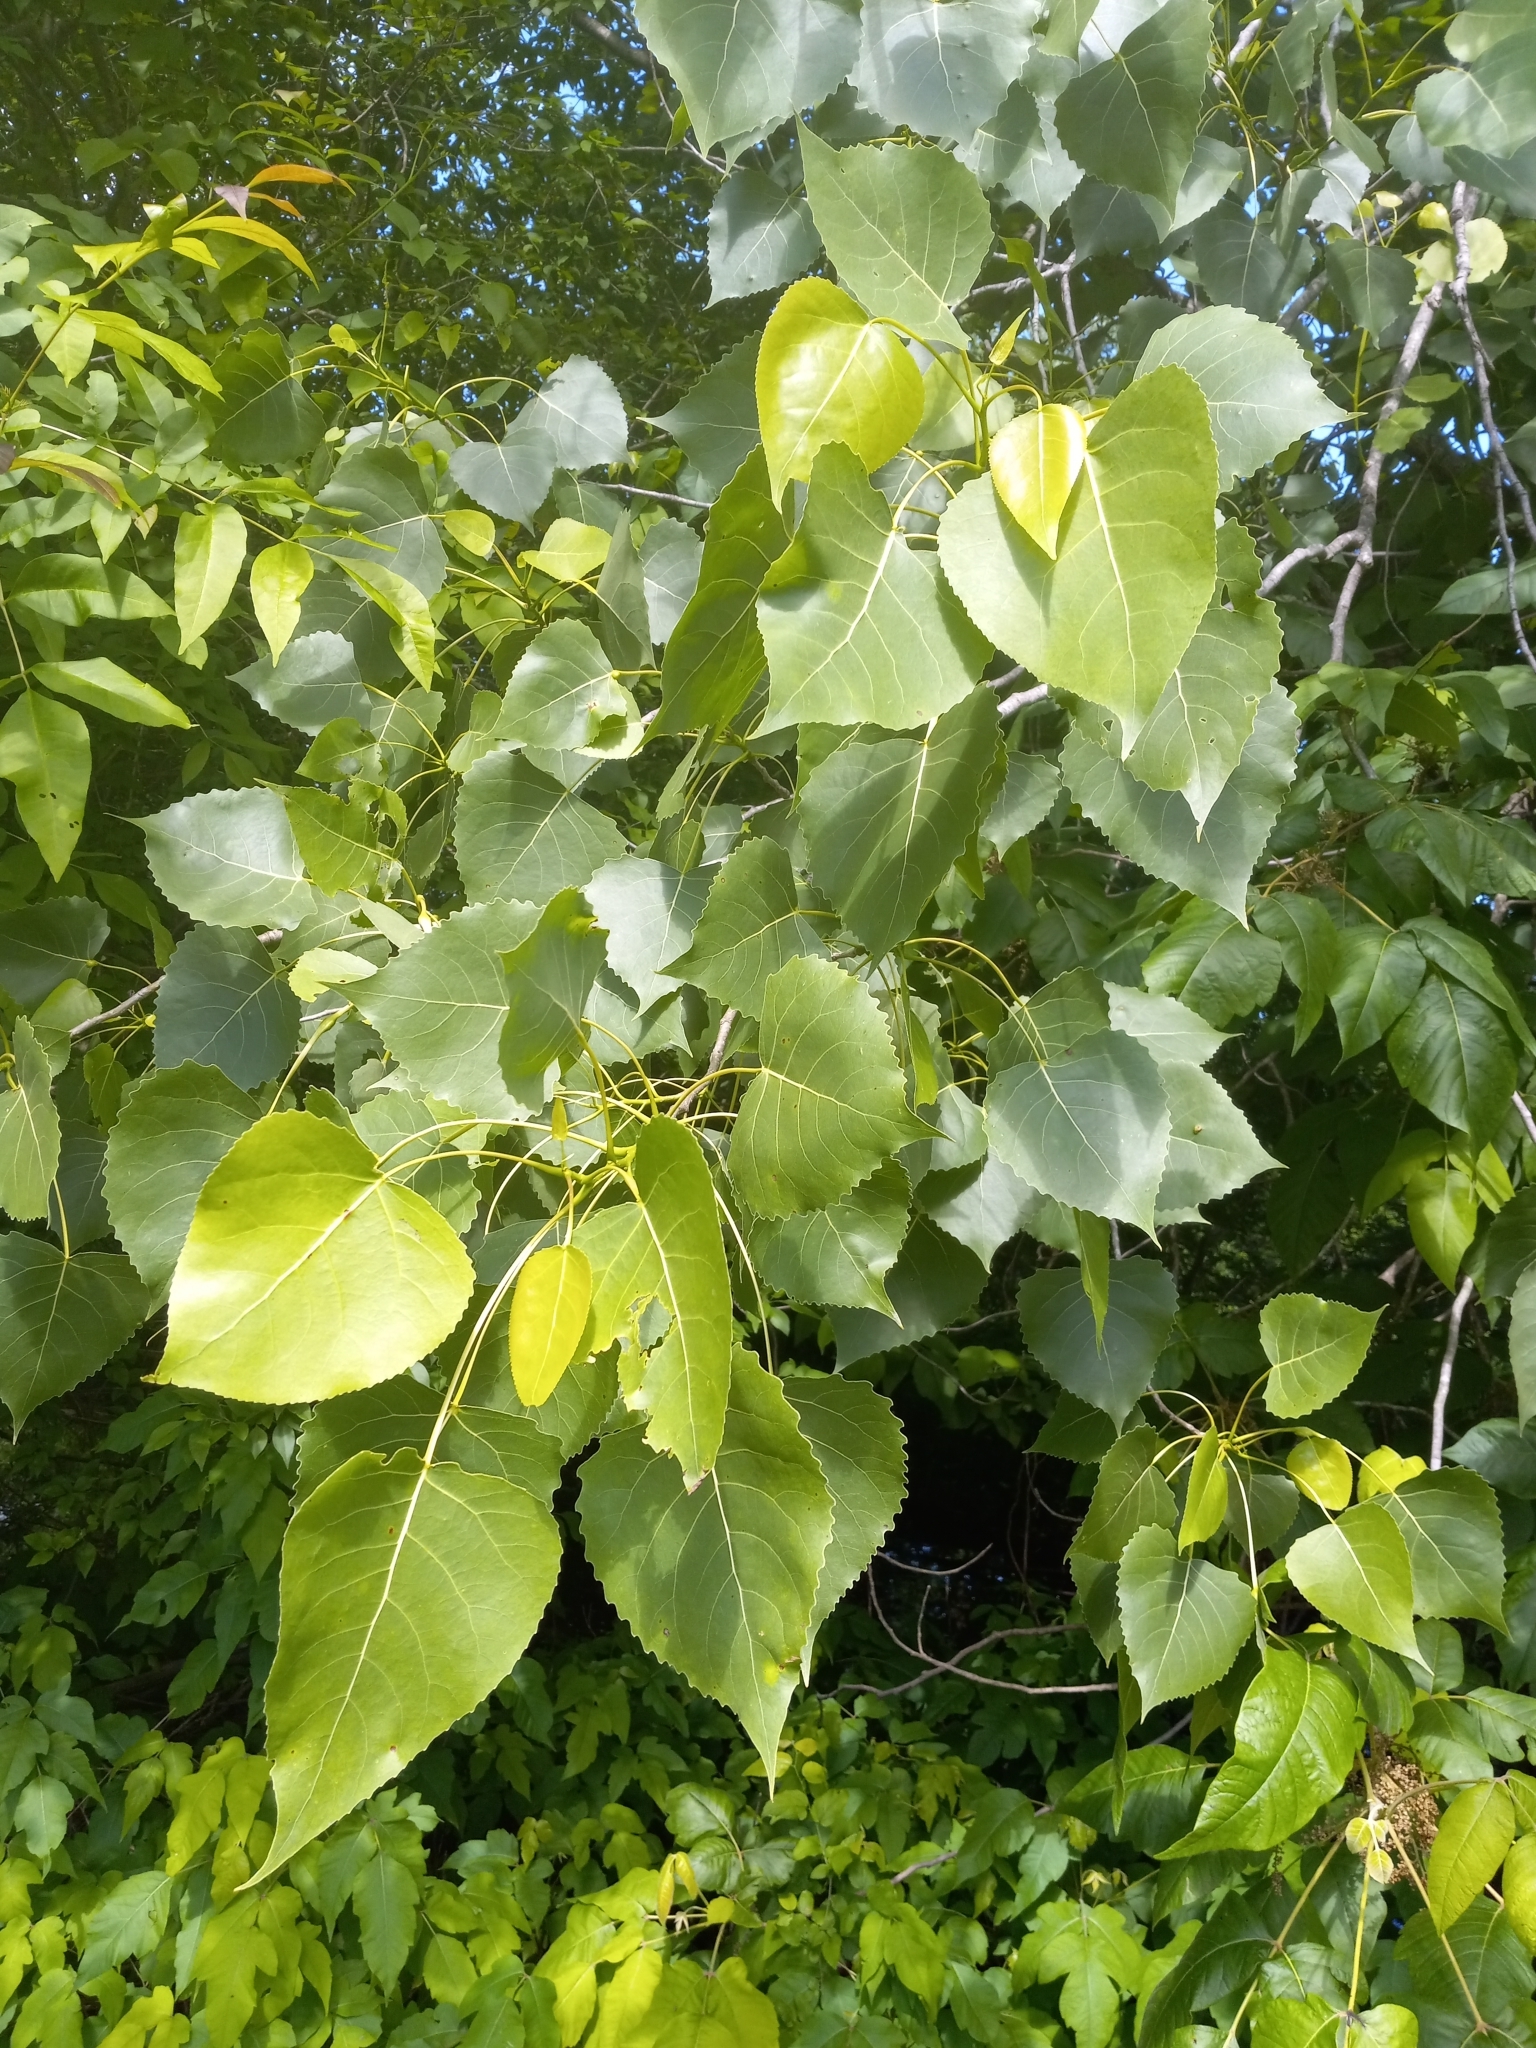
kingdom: Plantae
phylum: Tracheophyta
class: Magnoliopsida
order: Malpighiales
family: Salicaceae
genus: Populus
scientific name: Populus deltoides
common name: Eastern cottonwood
